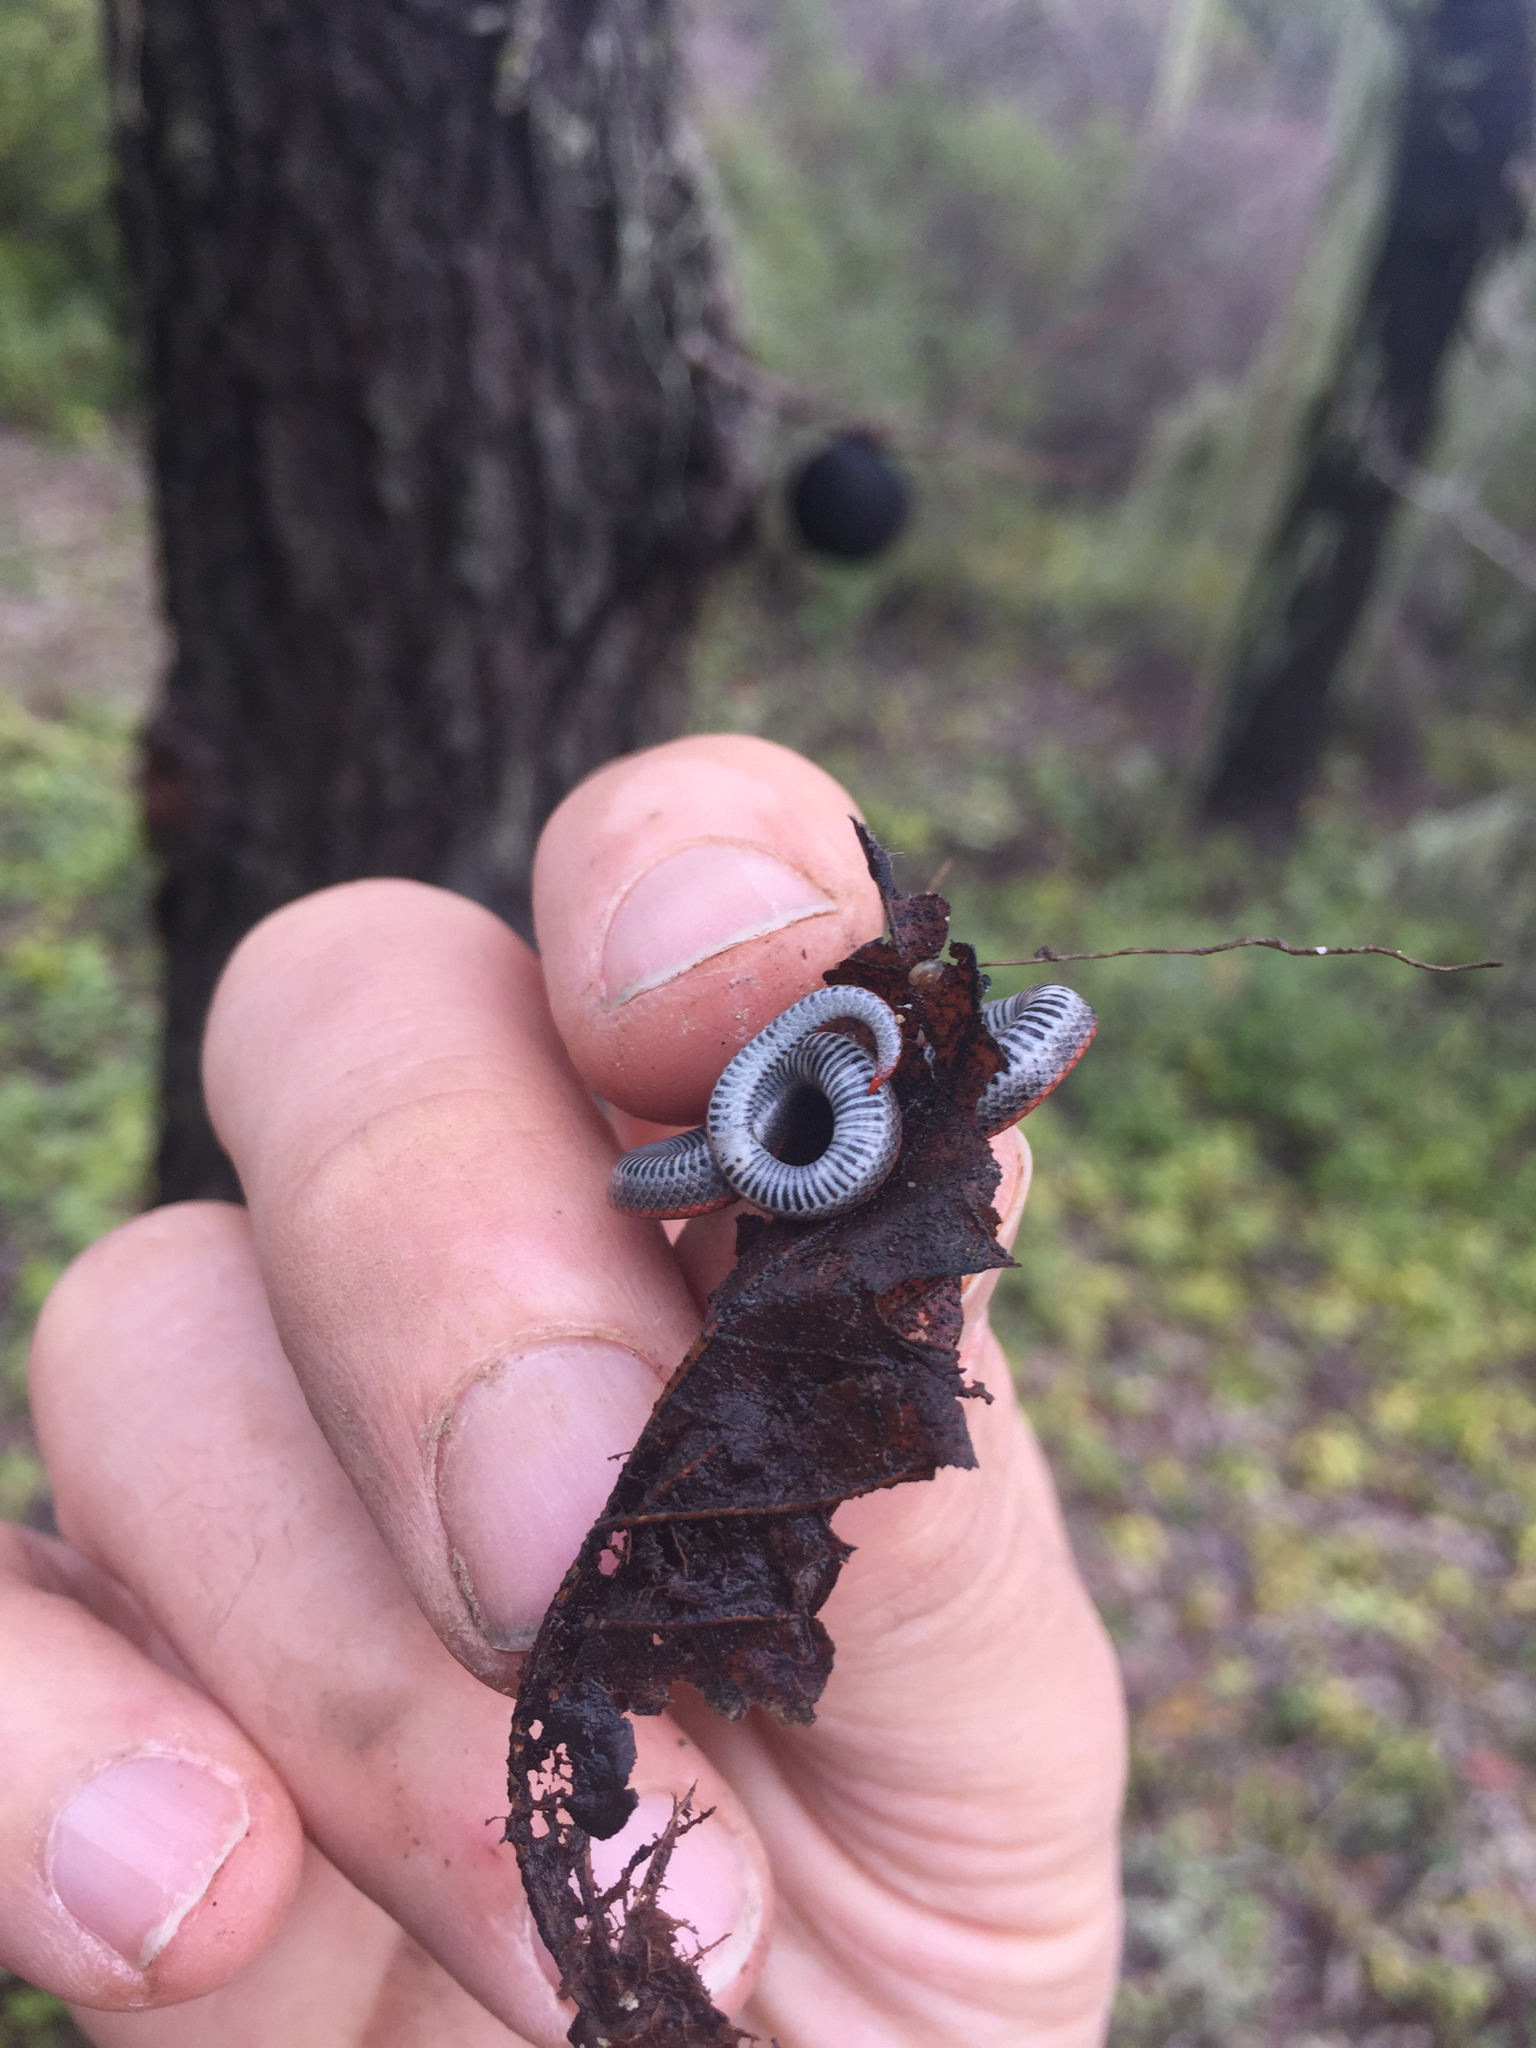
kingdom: Animalia
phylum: Chordata
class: Squamata
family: Colubridae
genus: Contia
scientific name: Contia tenuis
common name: Sharptail snake
